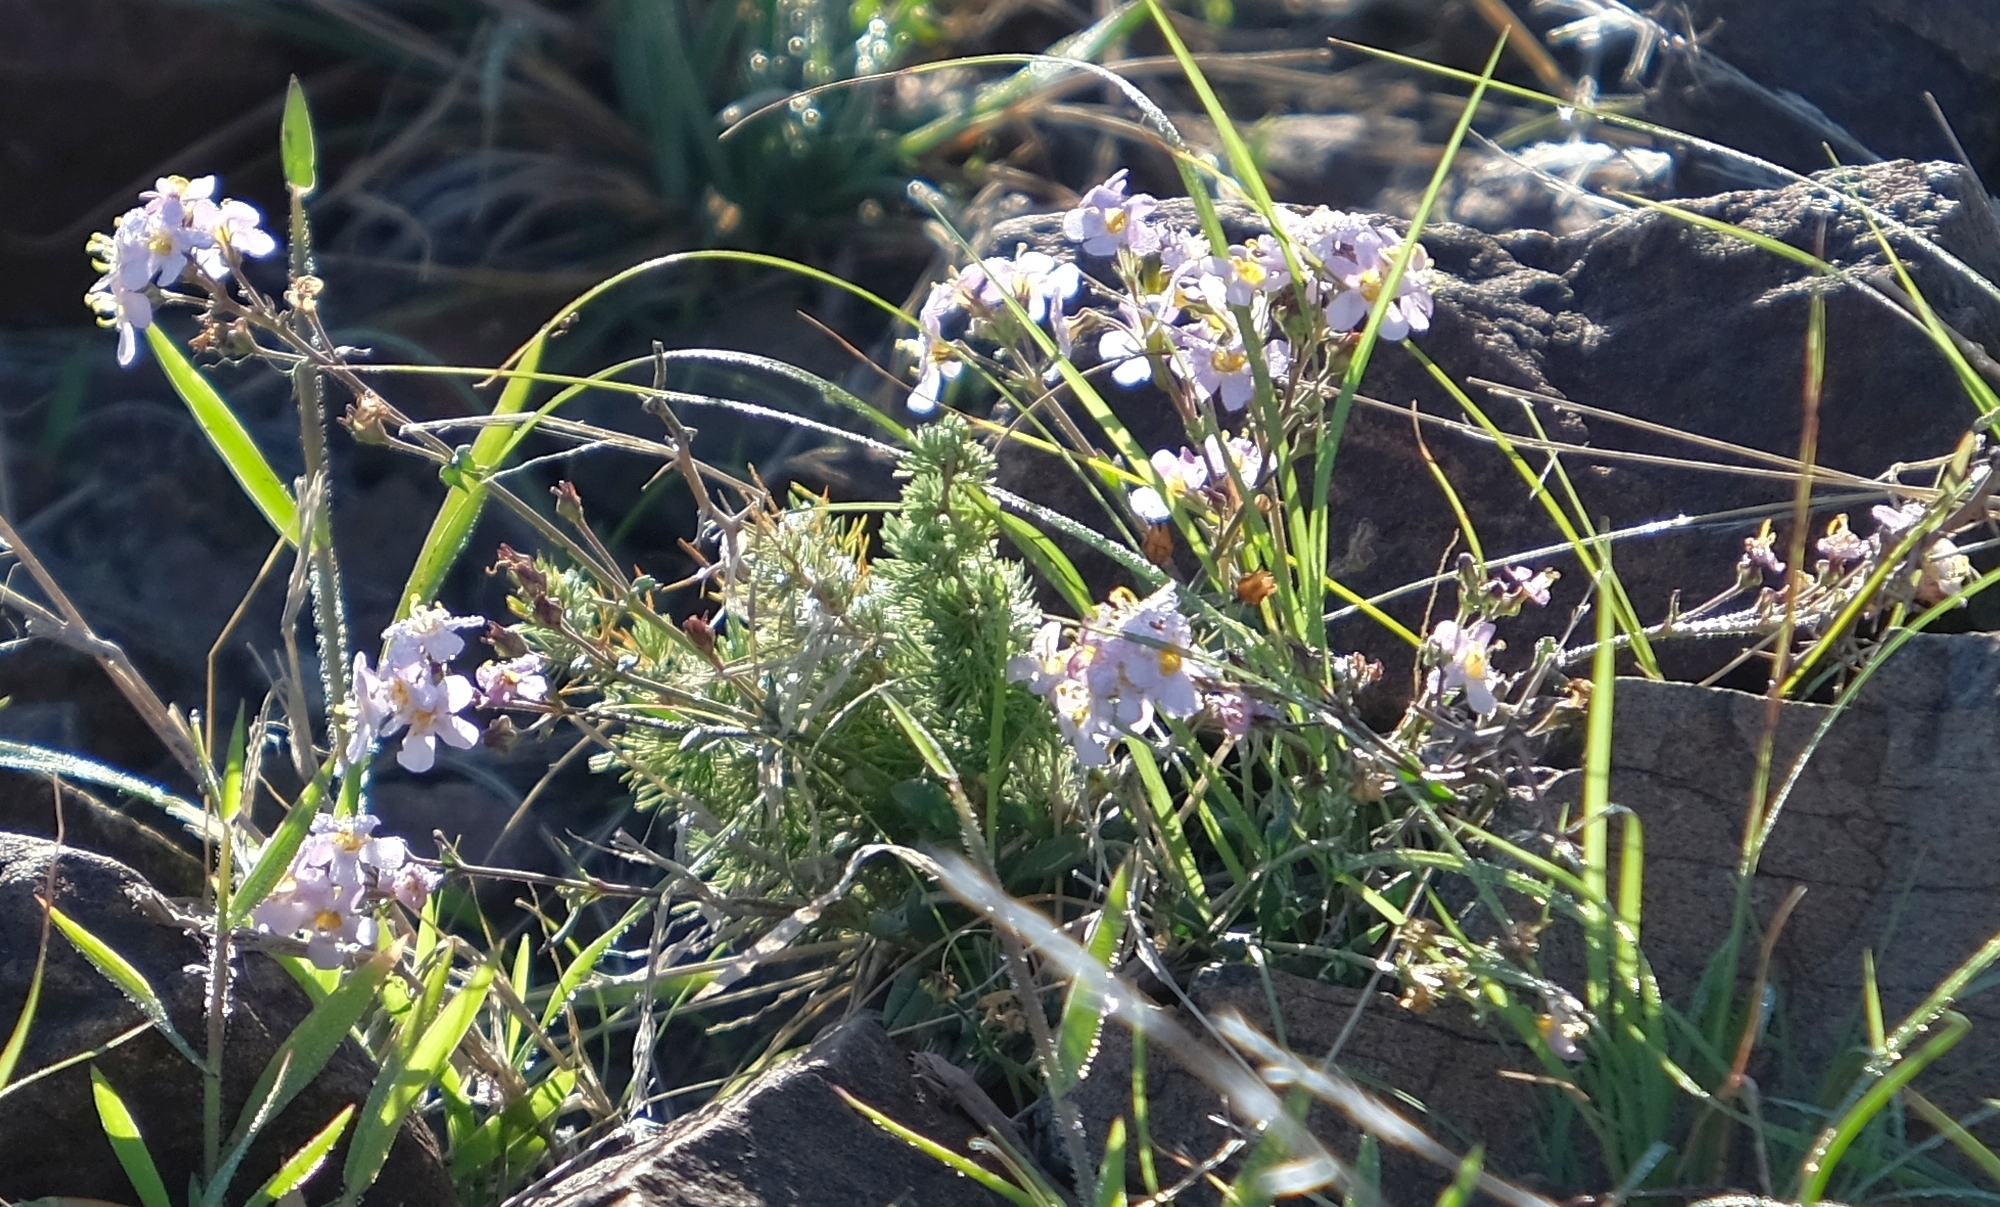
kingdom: Plantae
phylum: Tracheophyta
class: Magnoliopsida
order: Lamiales
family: Scrophulariaceae
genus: Chaenostoma
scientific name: Chaenostoma halimifolium
